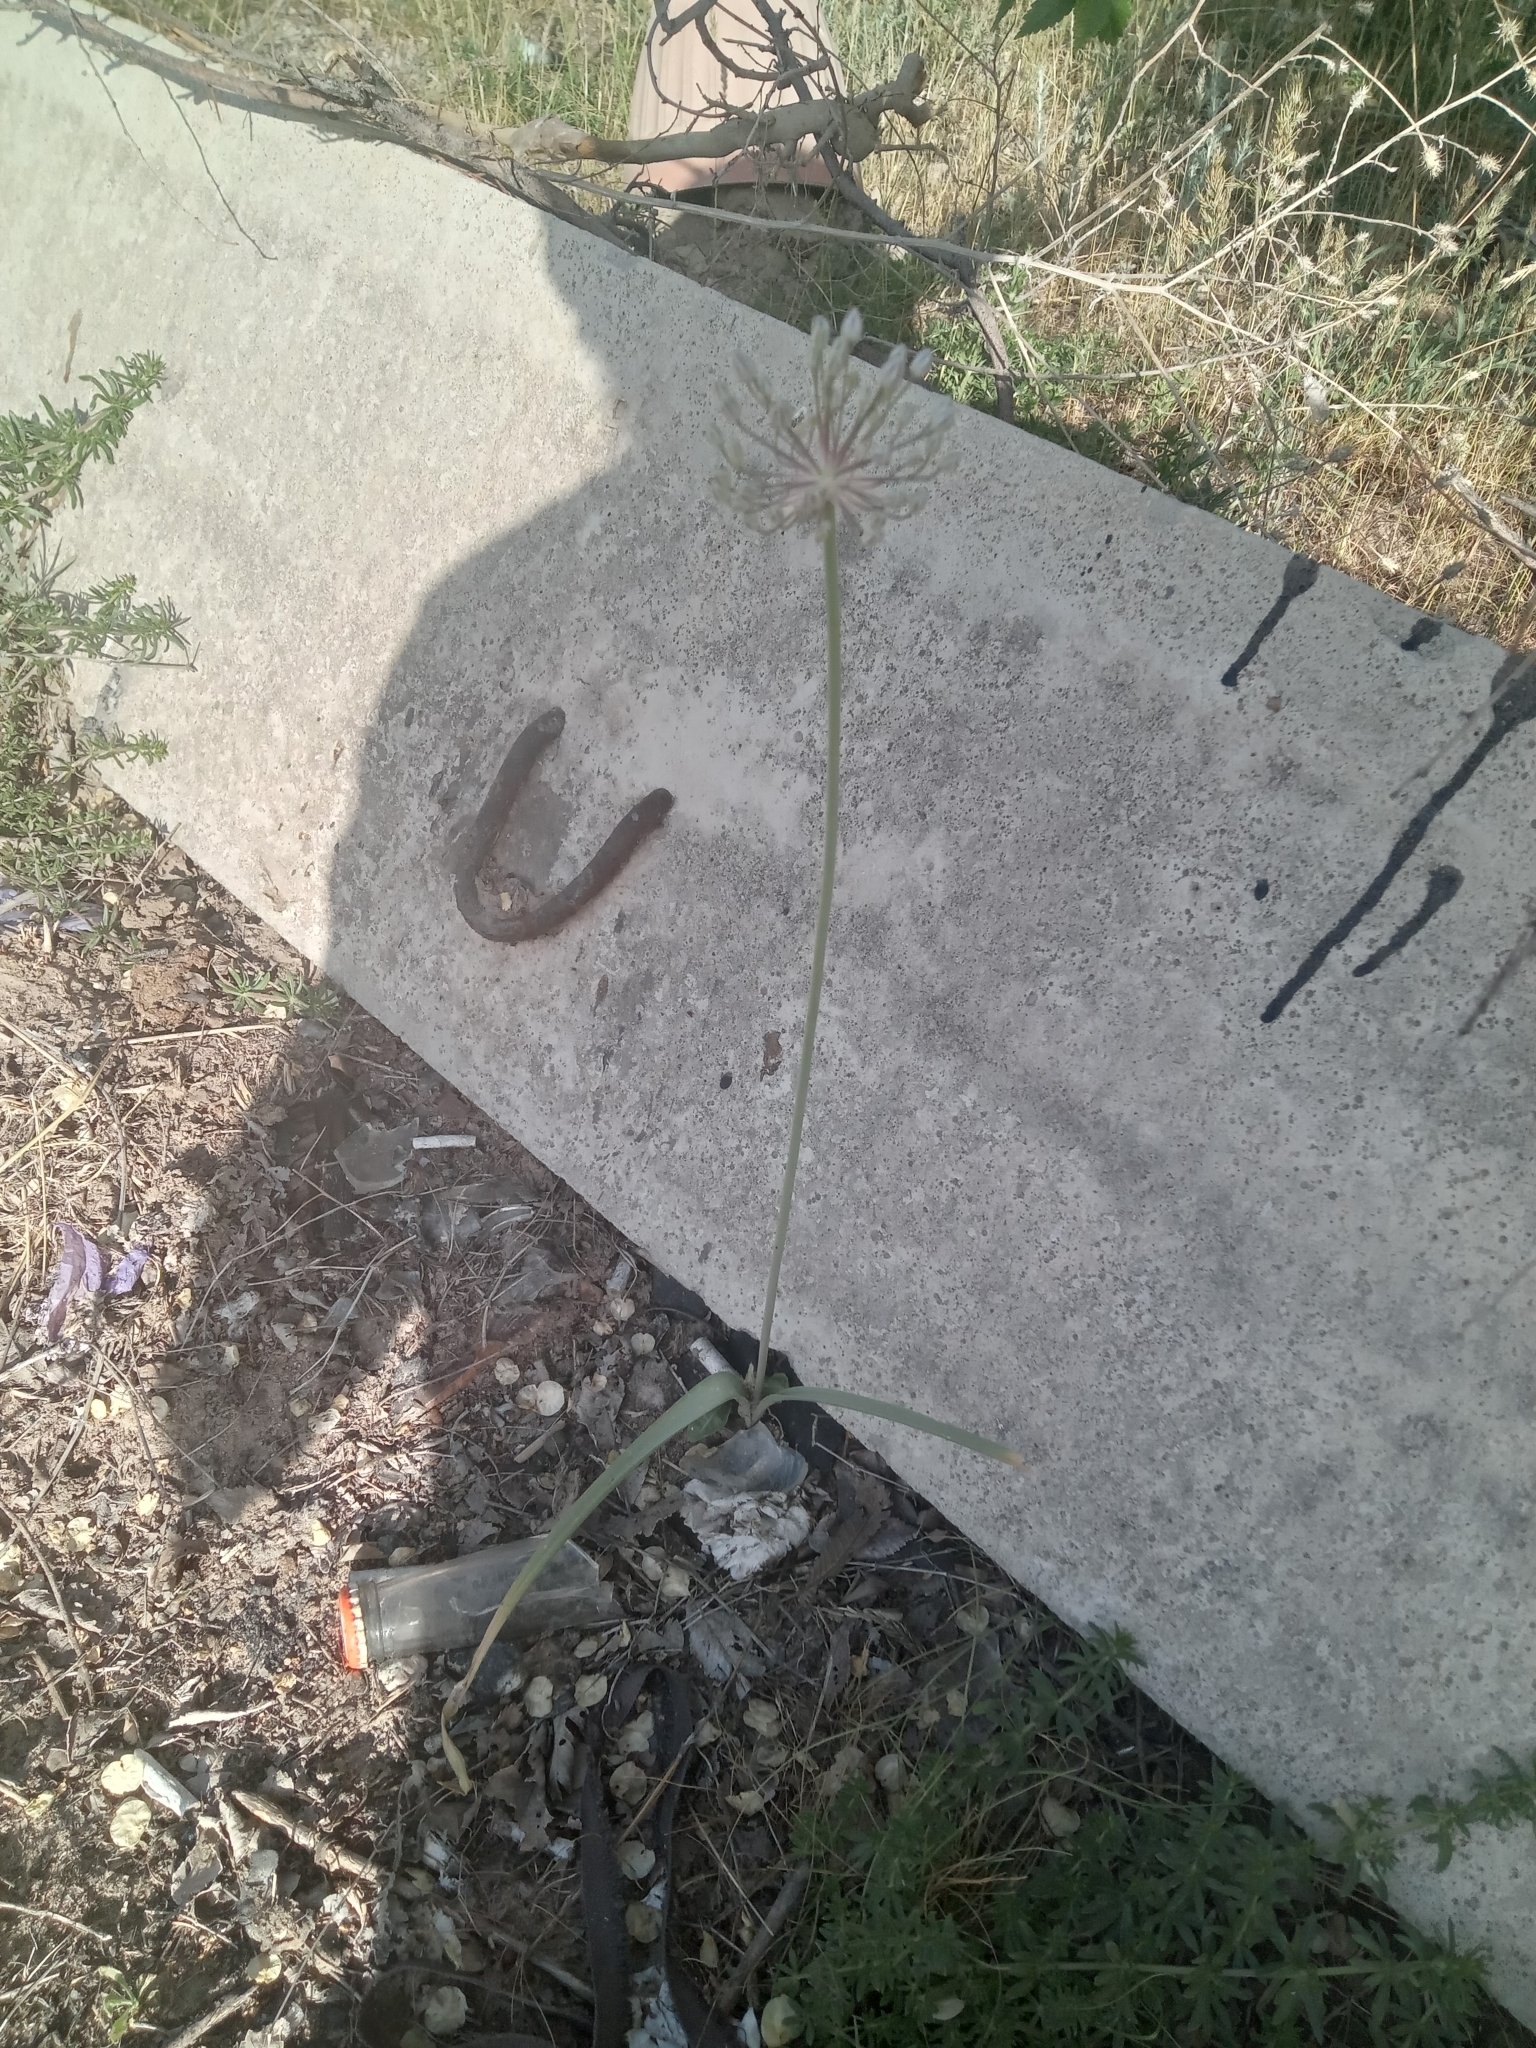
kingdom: Plantae
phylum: Tracheophyta
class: Liliopsida
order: Asparagales
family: Amaryllidaceae
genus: Allium
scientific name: Allium subscabrum
